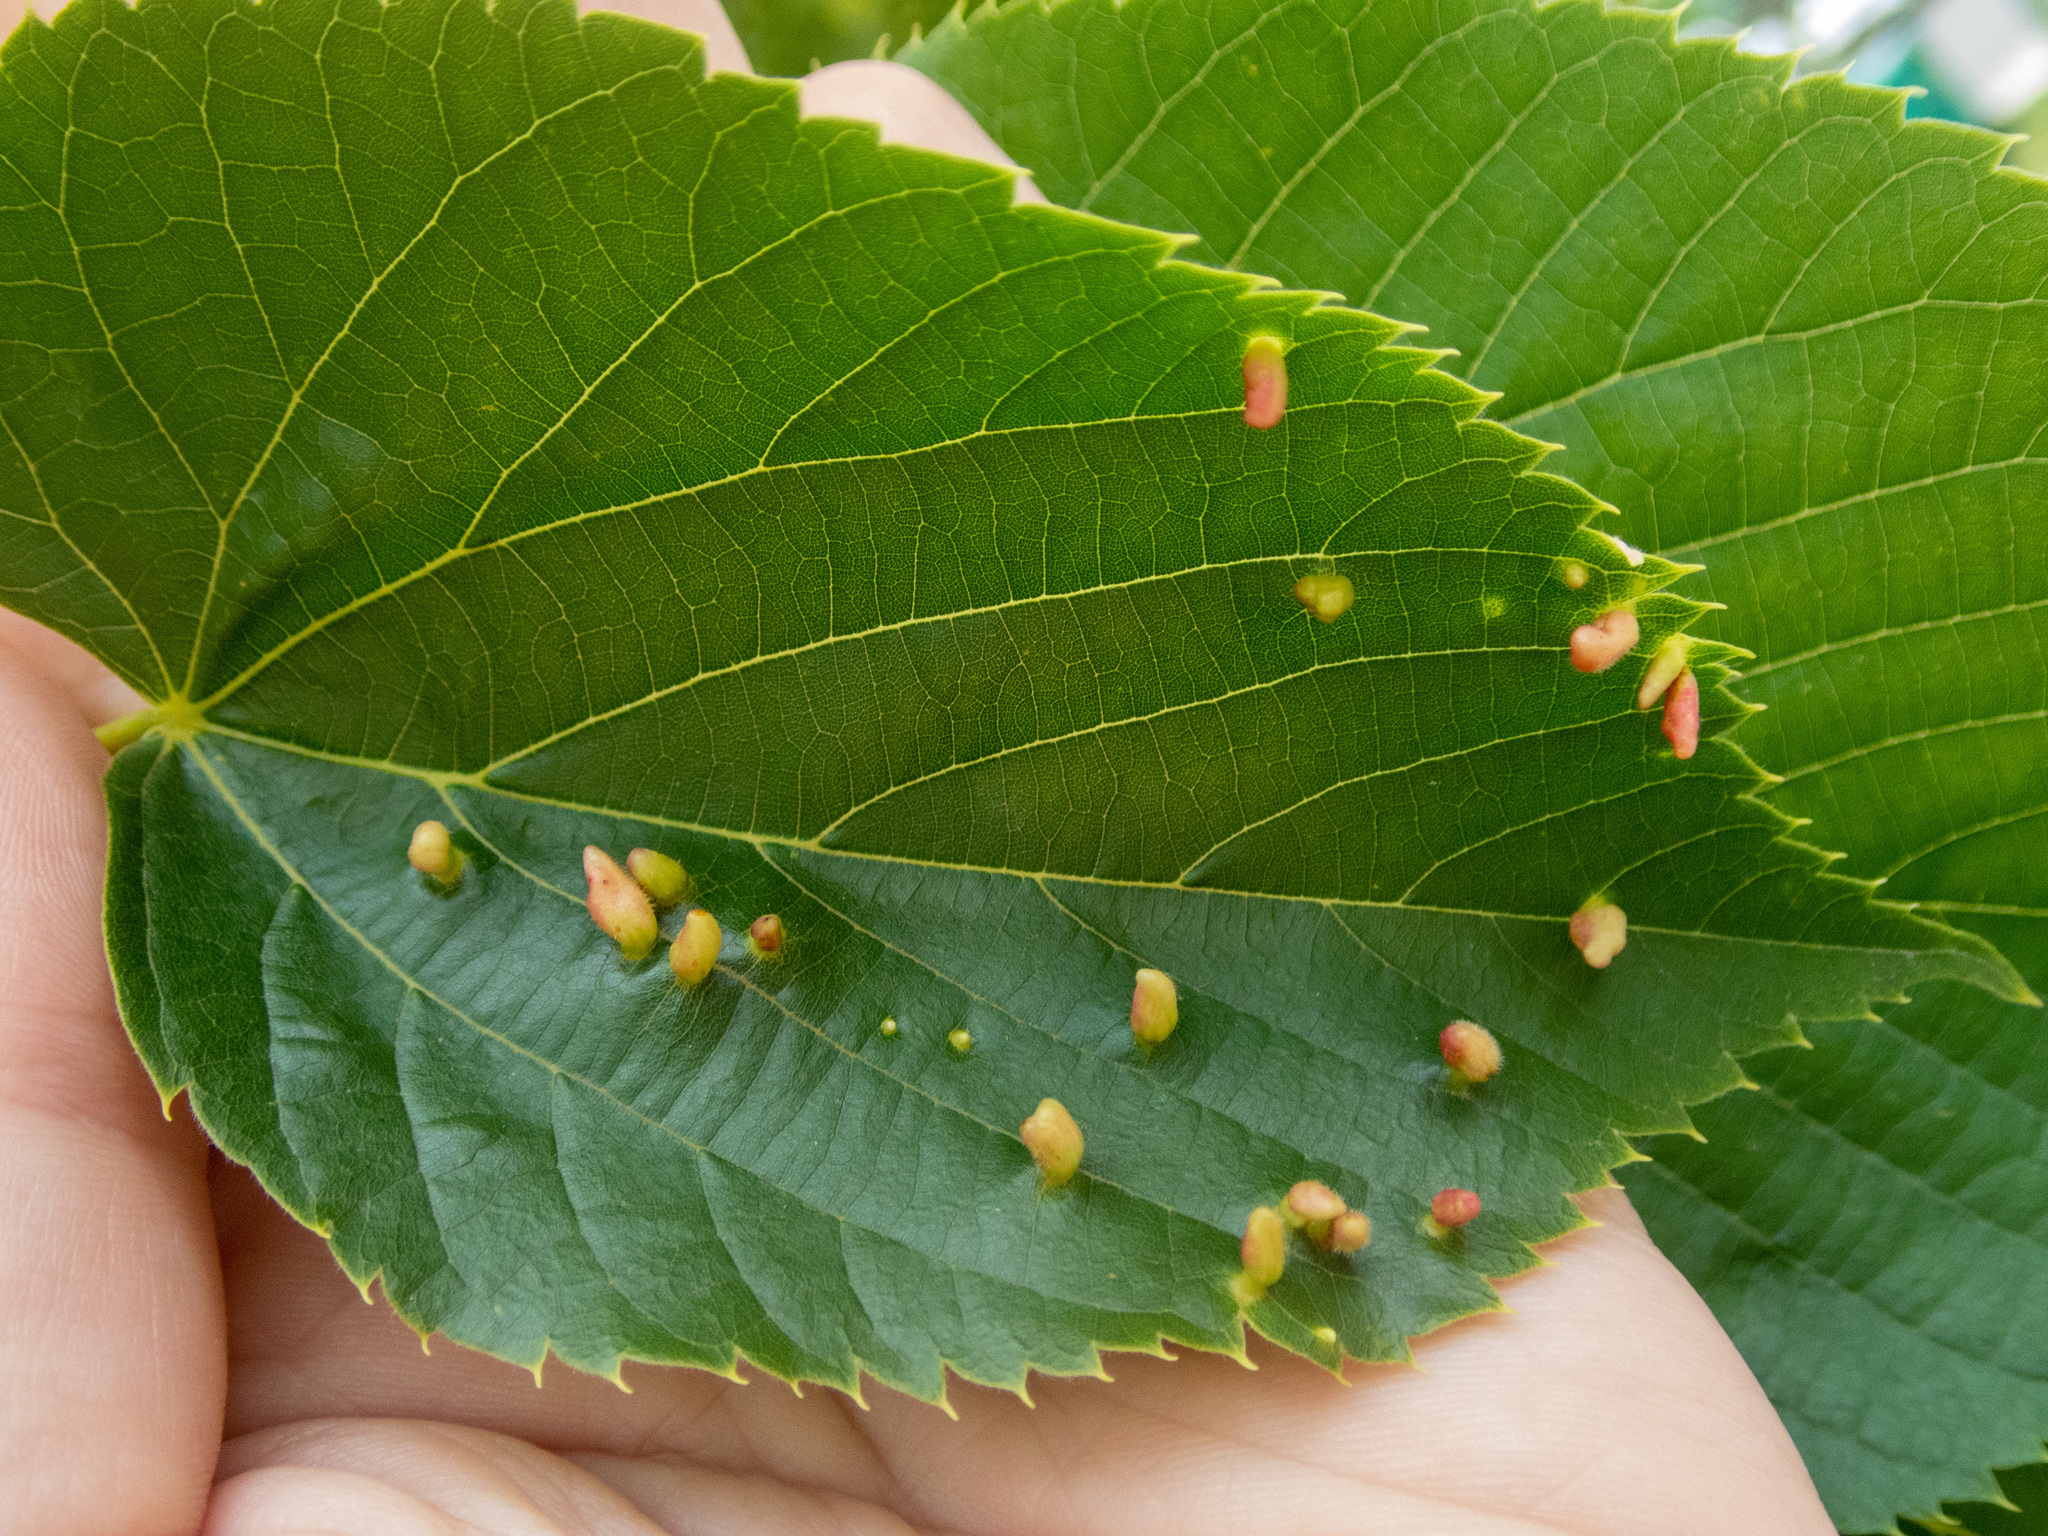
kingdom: Animalia
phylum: Arthropoda
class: Arachnida
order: Trombidiformes
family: Eriophyidae
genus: Eriophyes
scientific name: Eriophyes tiliae
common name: Red nail gall mite
